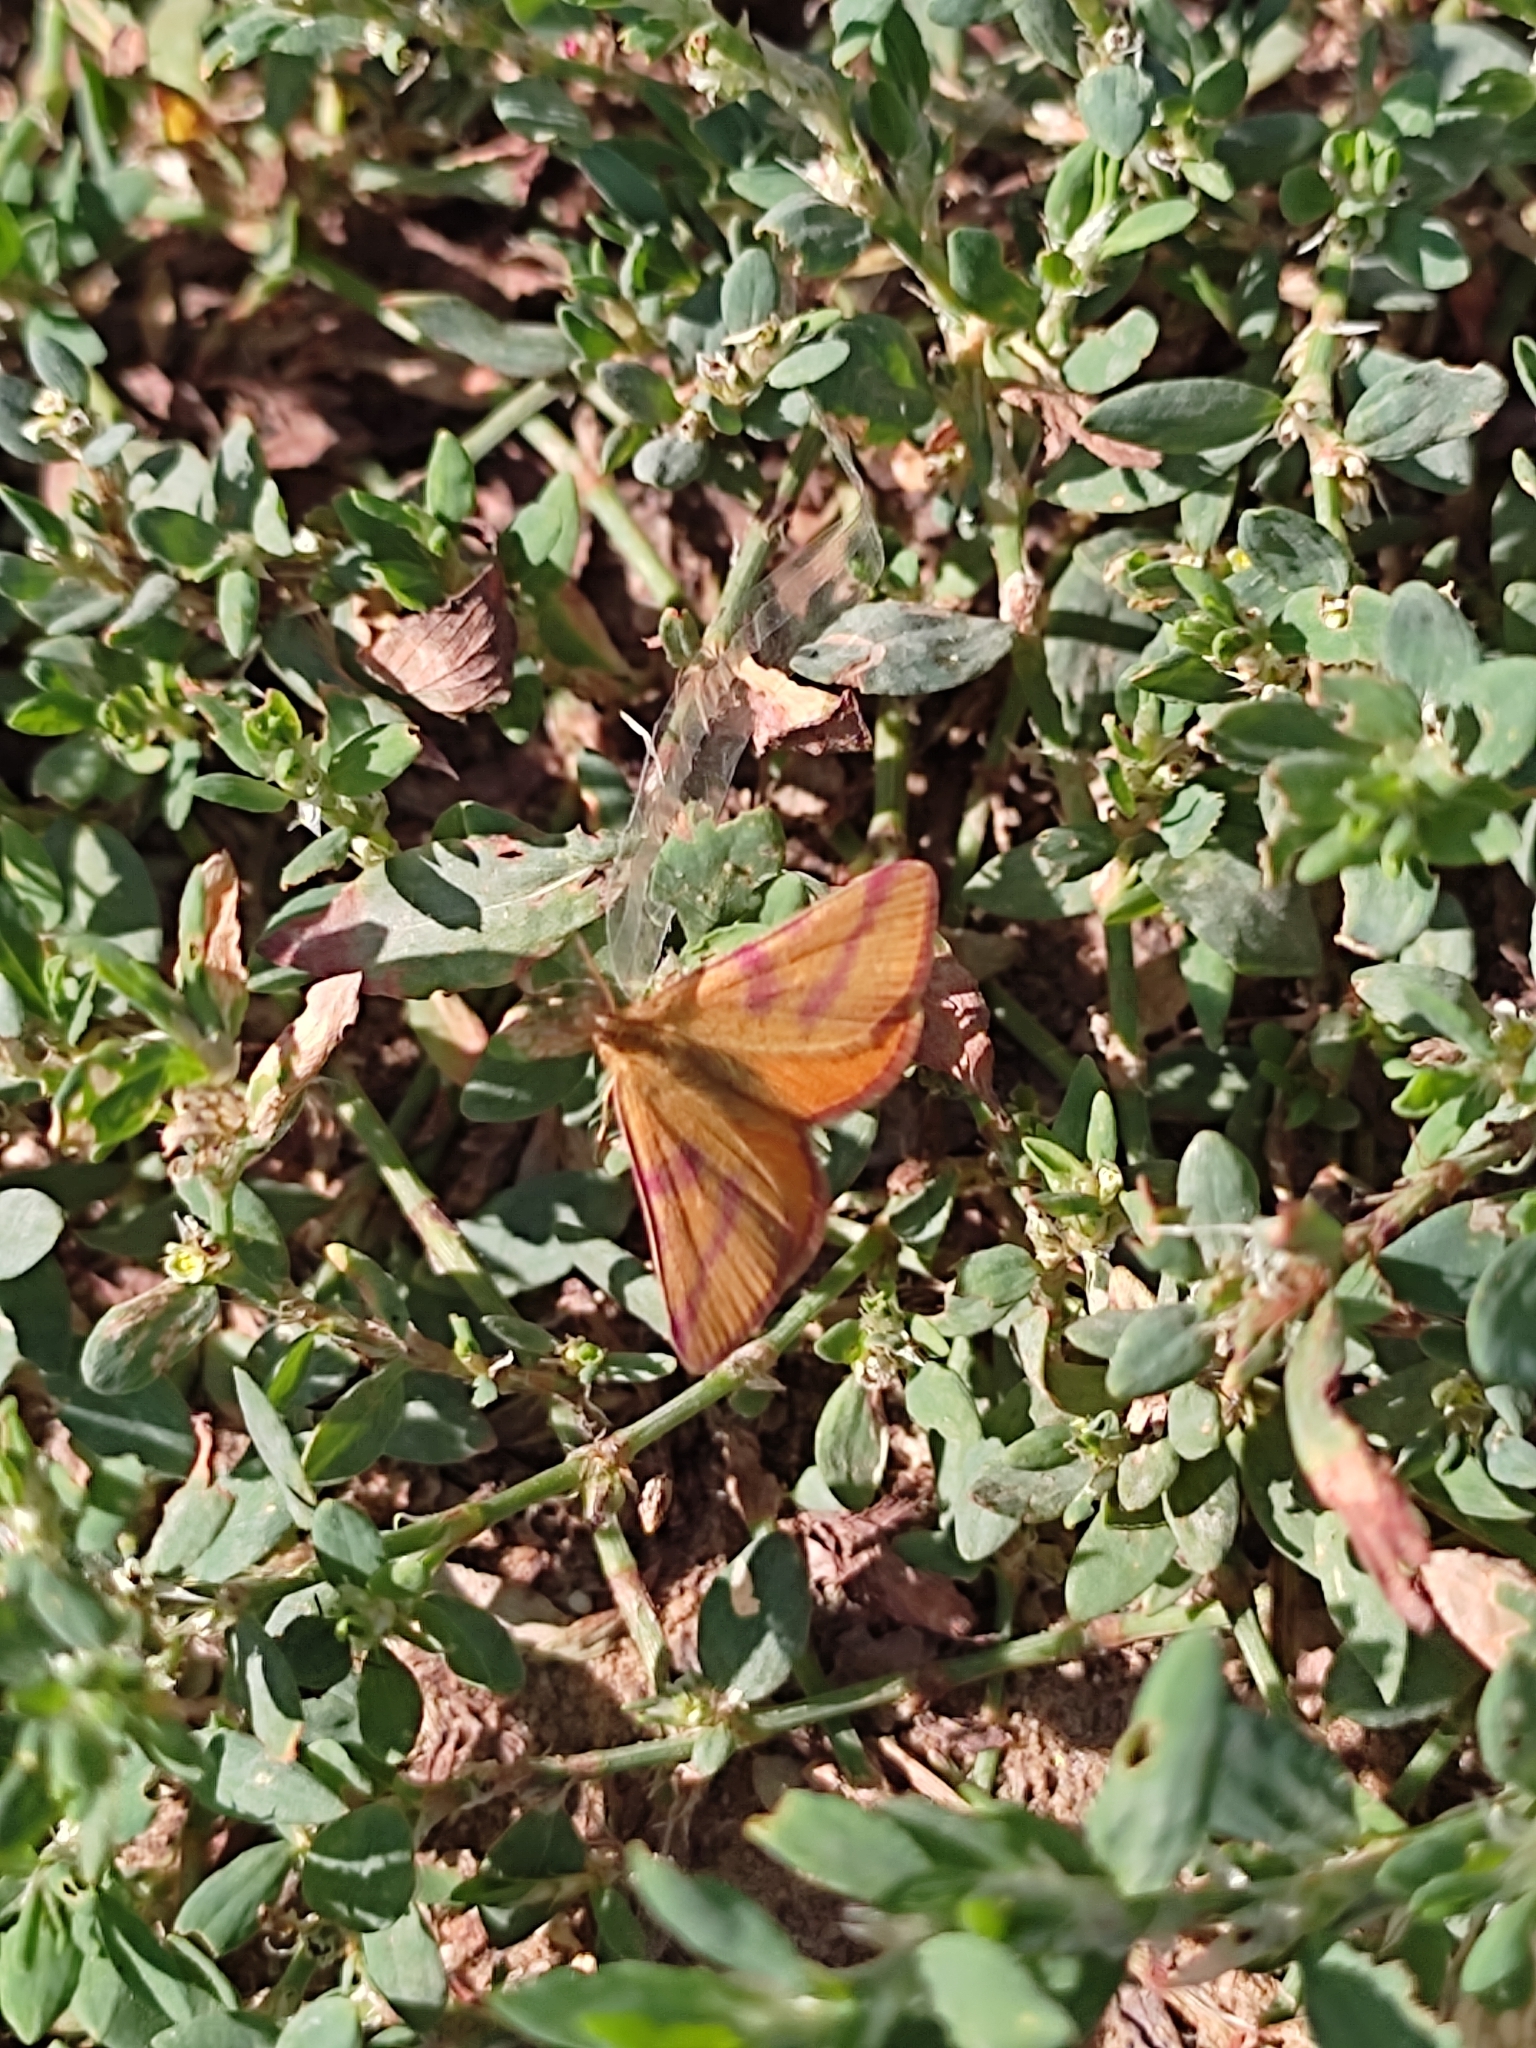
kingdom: Animalia
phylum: Arthropoda
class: Insecta
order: Lepidoptera
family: Geometridae
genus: Lythria
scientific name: Lythria purpuraria
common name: Purple-barred yellow
